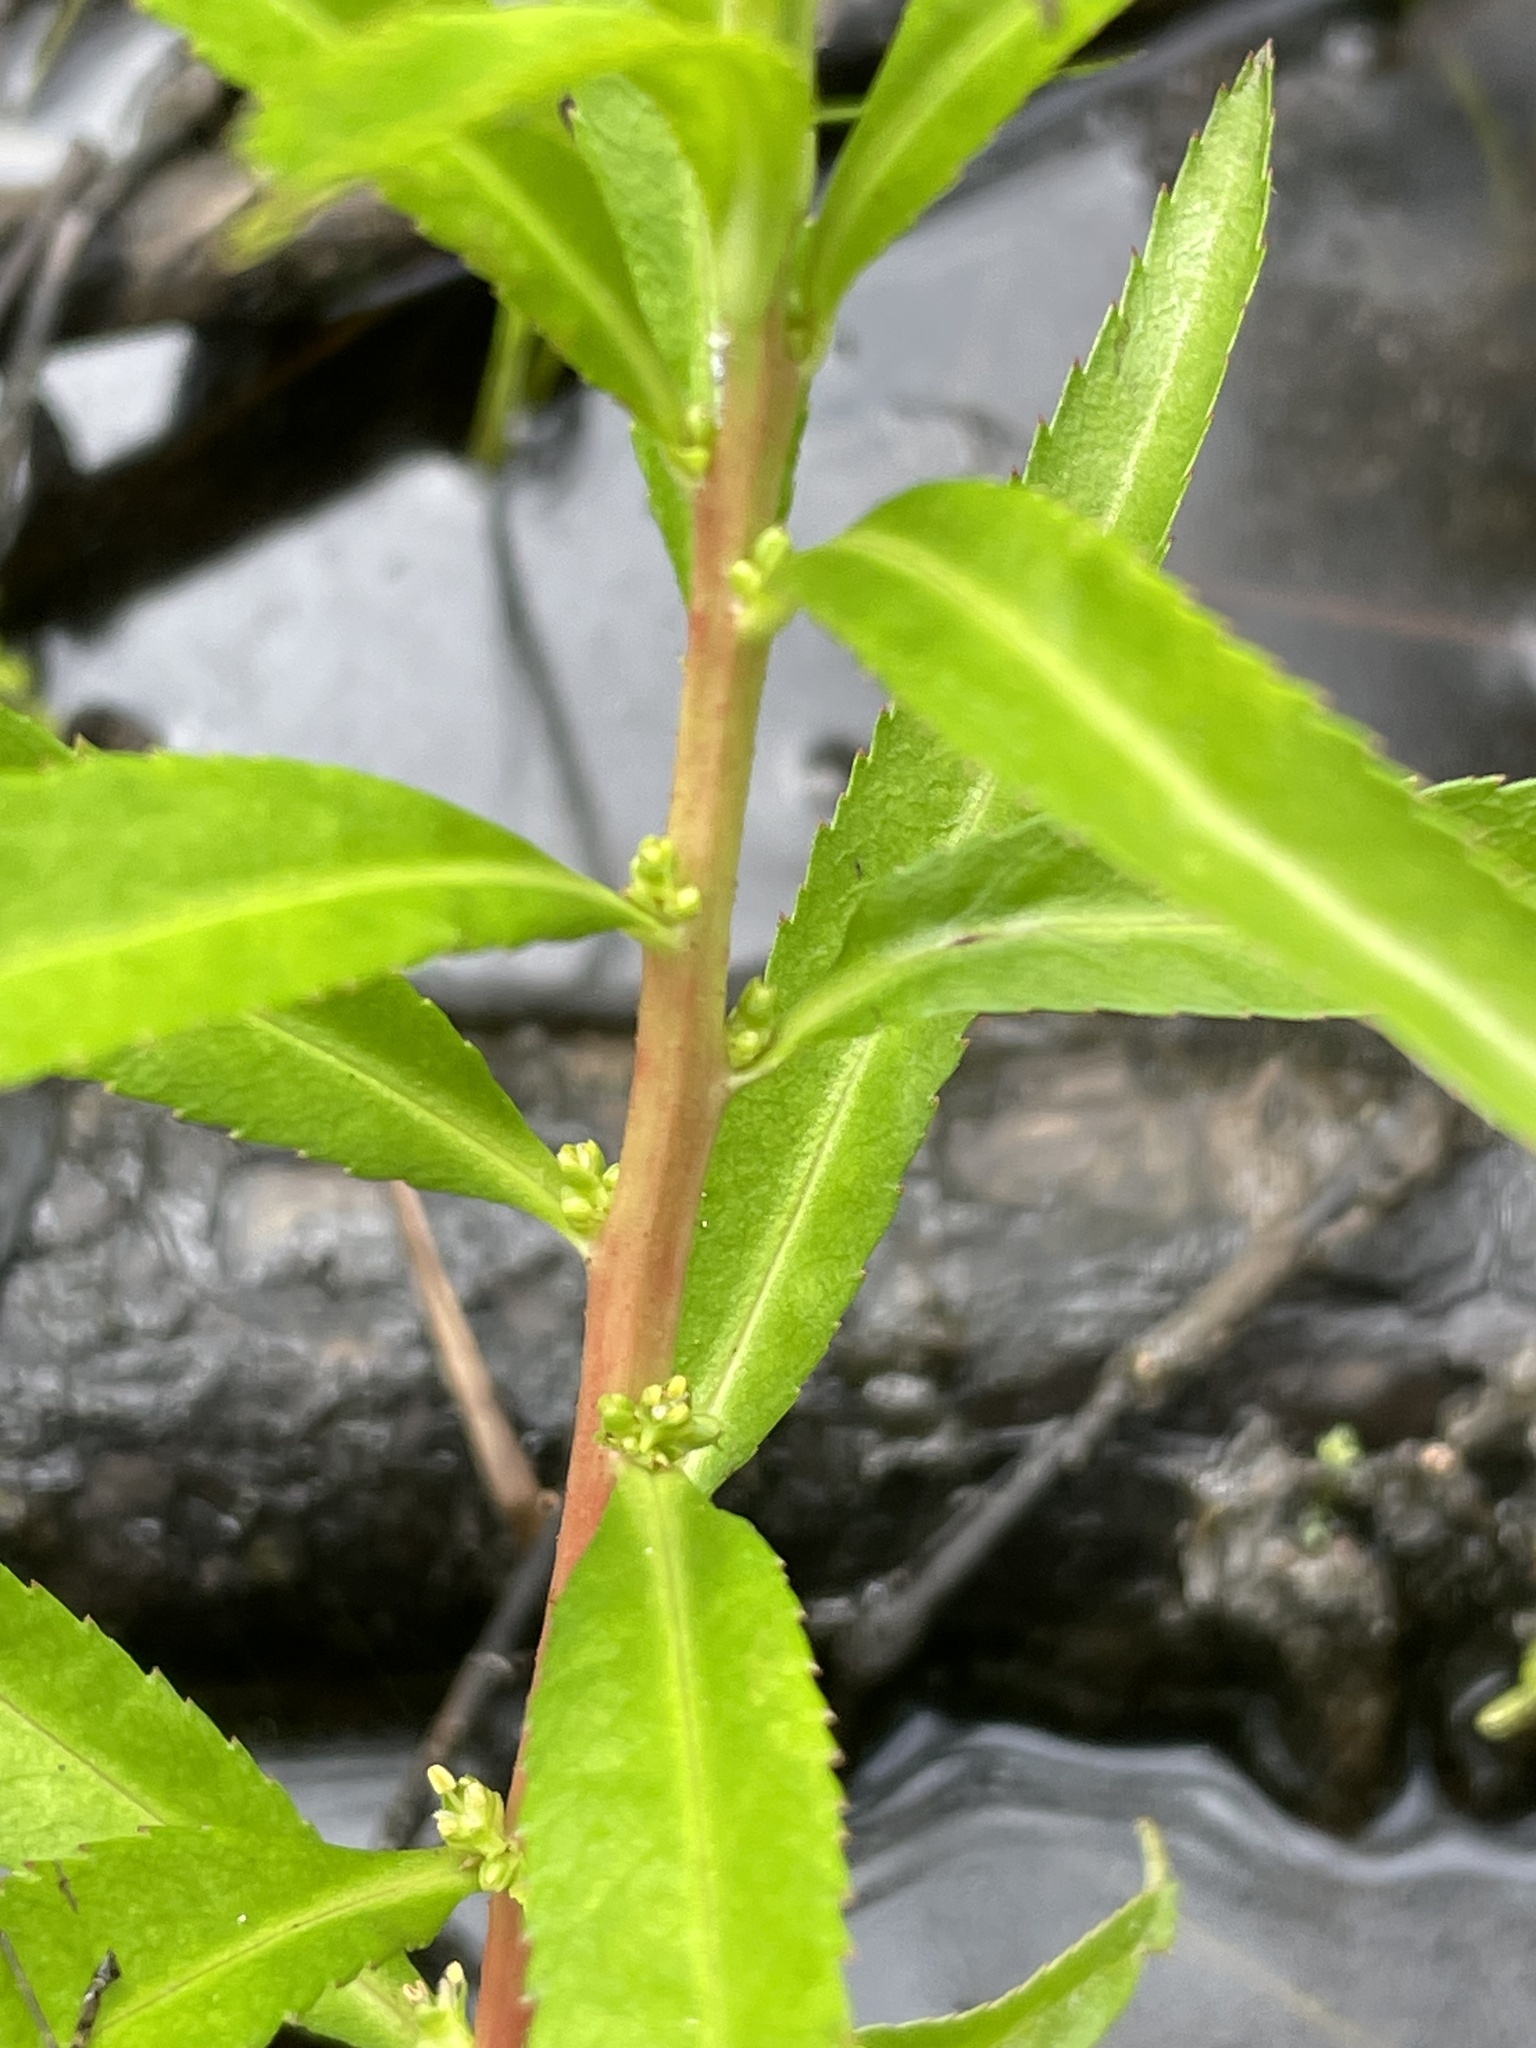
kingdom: Plantae
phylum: Tracheophyta
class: Magnoliopsida
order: Saxifragales
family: Haloragaceae
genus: Proserpinaca
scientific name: Proserpinaca palustris
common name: Marsh mermaidweed
